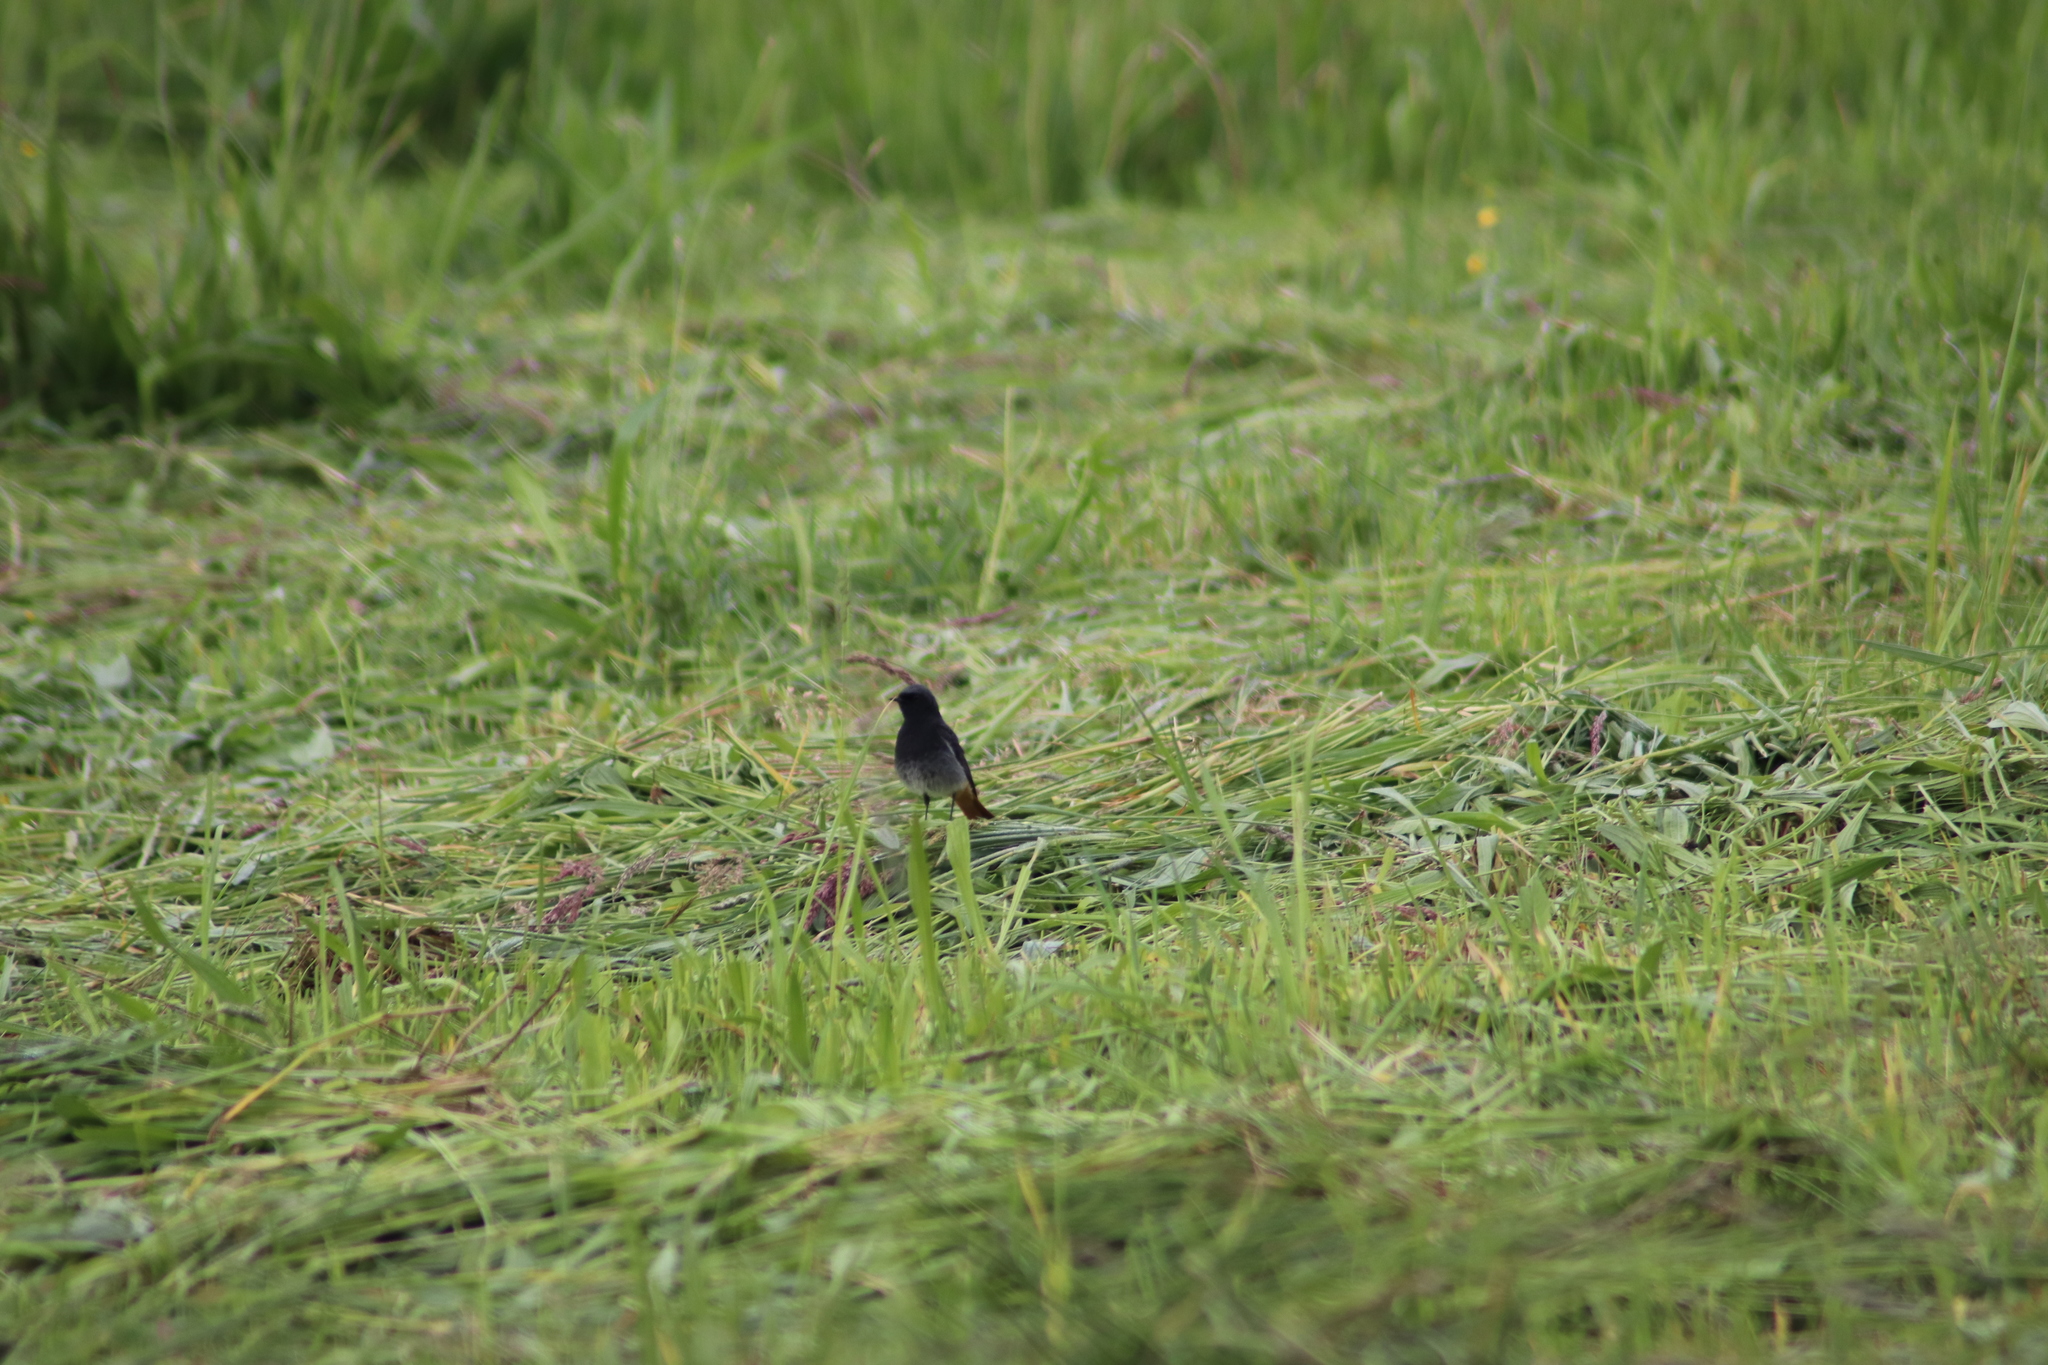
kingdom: Animalia
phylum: Chordata
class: Aves
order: Passeriformes
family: Muscicapidae
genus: Phoenicurus
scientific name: Phoenicurus ochruros
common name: Black redstart
